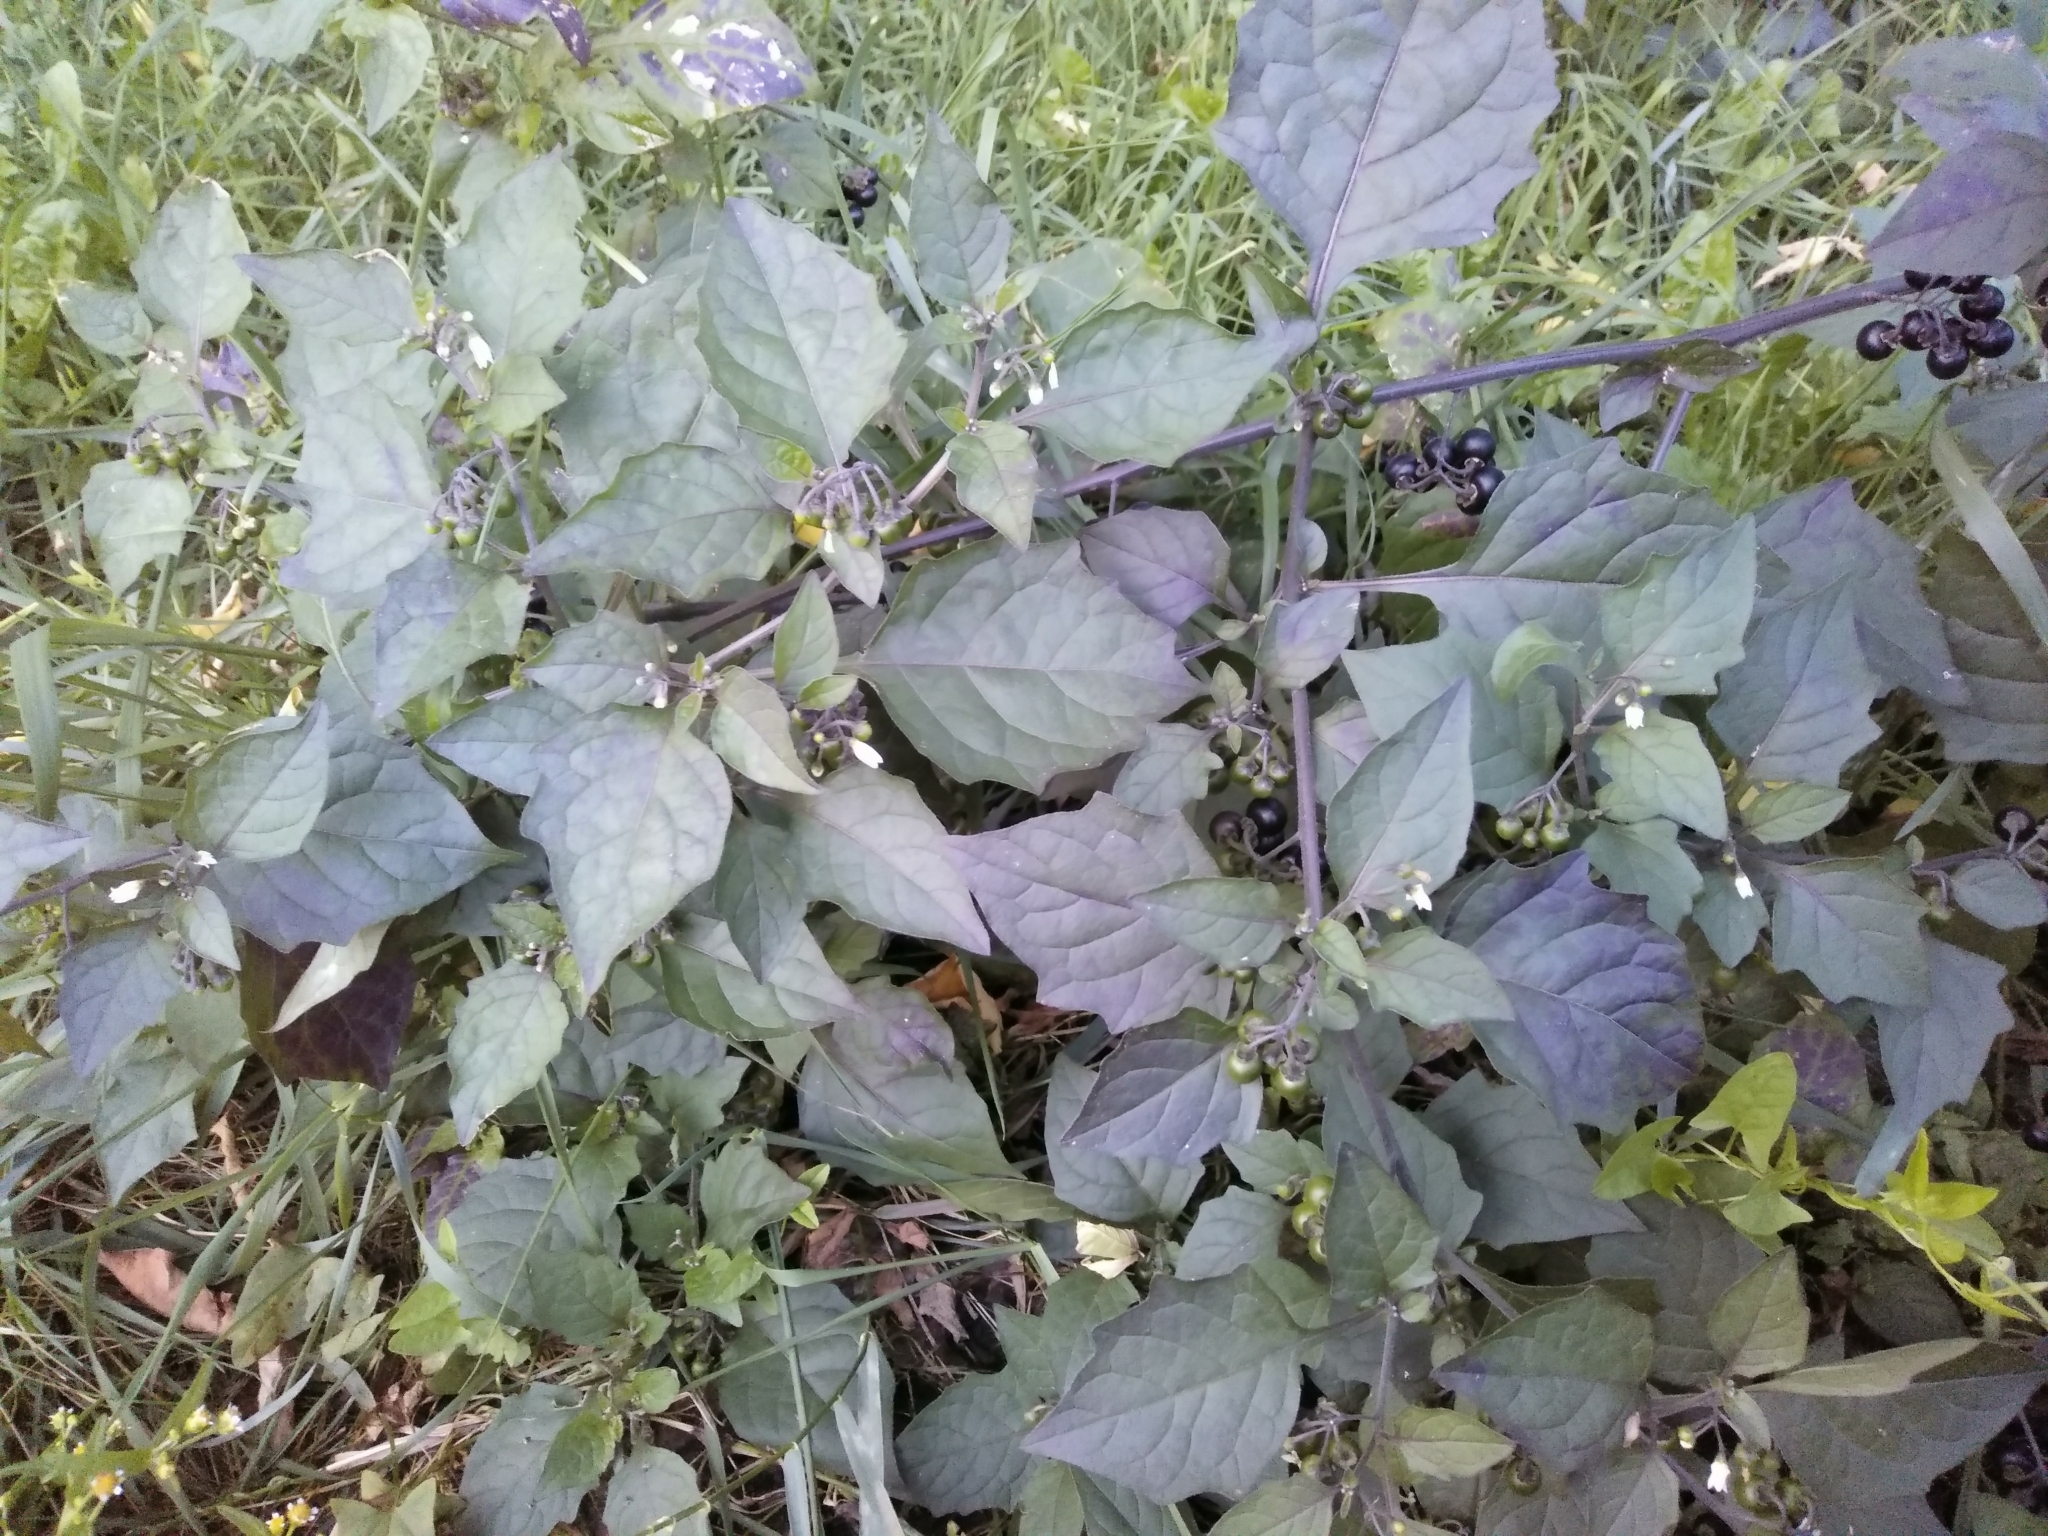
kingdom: Plantae
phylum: Tracheophyta
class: Magnoliopsida
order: Solanales
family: Solanaceae
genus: Solanum
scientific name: Solanum nigrum
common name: Black nightshade
